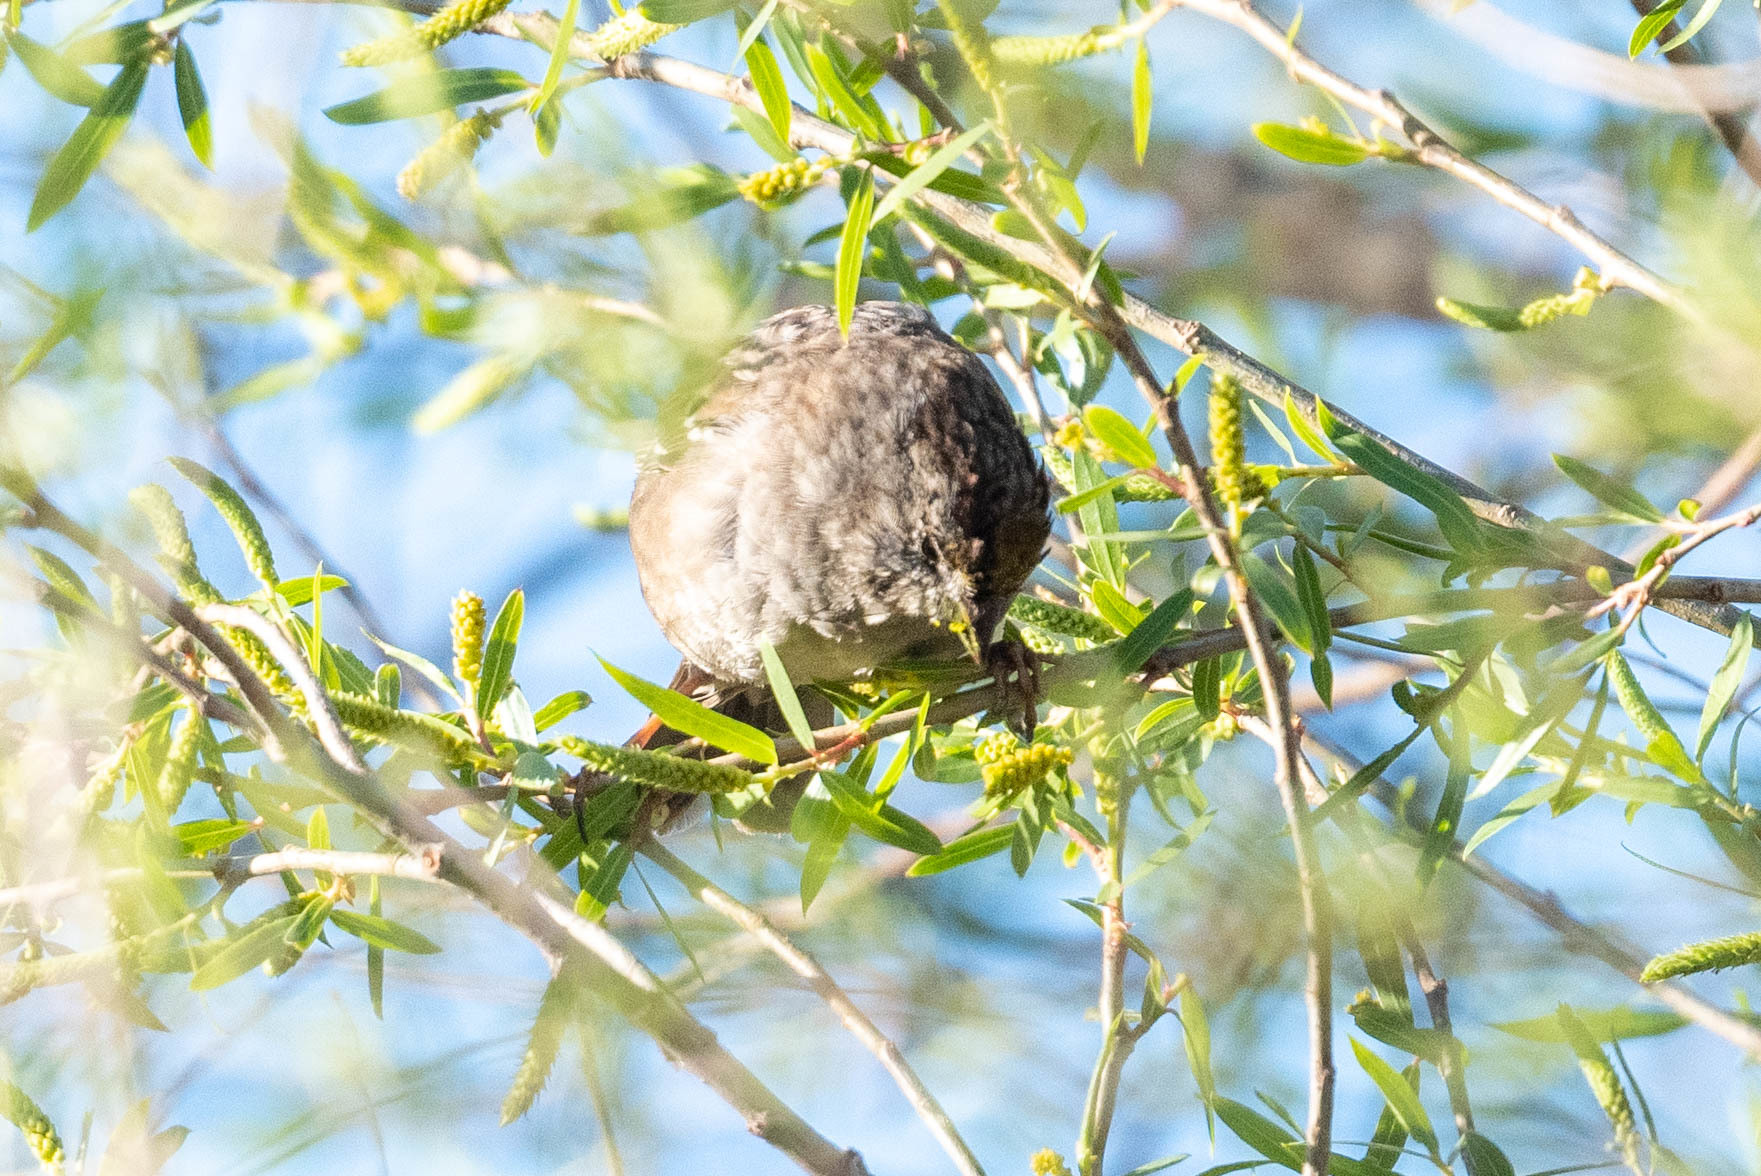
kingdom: Animalia
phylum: Chordata
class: Aves
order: Passeriformes
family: Passerellidae
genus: Zonotrichia
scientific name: Zonotrichia atricapilla
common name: Golden-crowned sparrow
